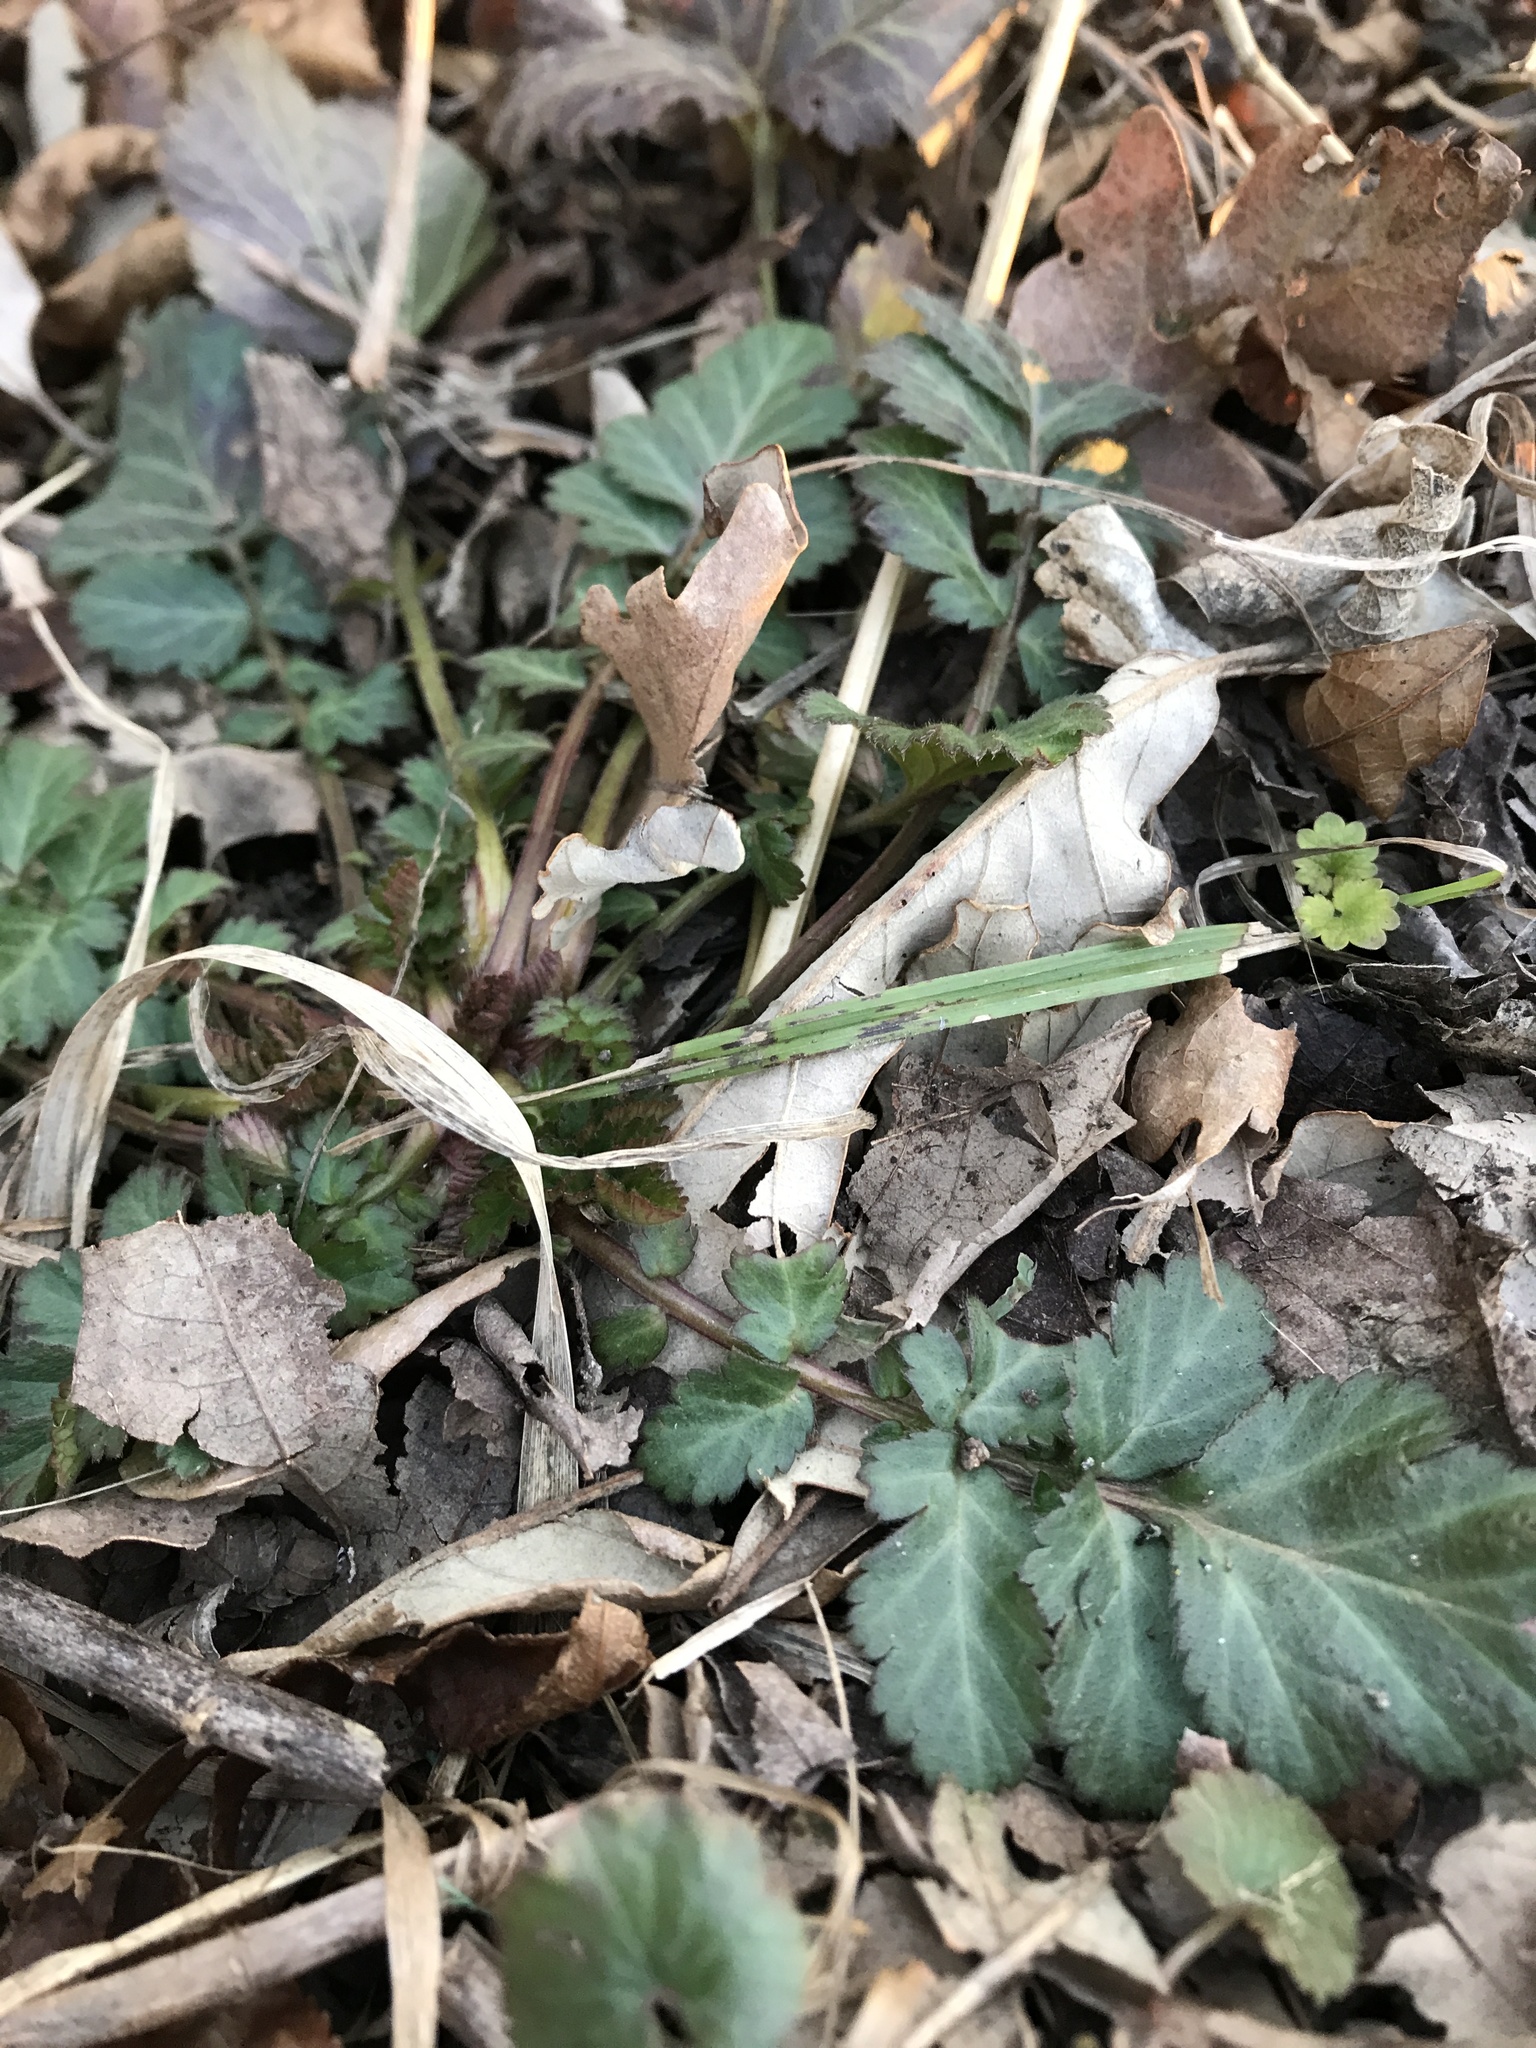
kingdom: Plantae
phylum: Tracheophyta
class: Magnoliopsida
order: Rosales
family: Rosaceae
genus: Geum
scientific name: Geum canadense
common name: White avens
